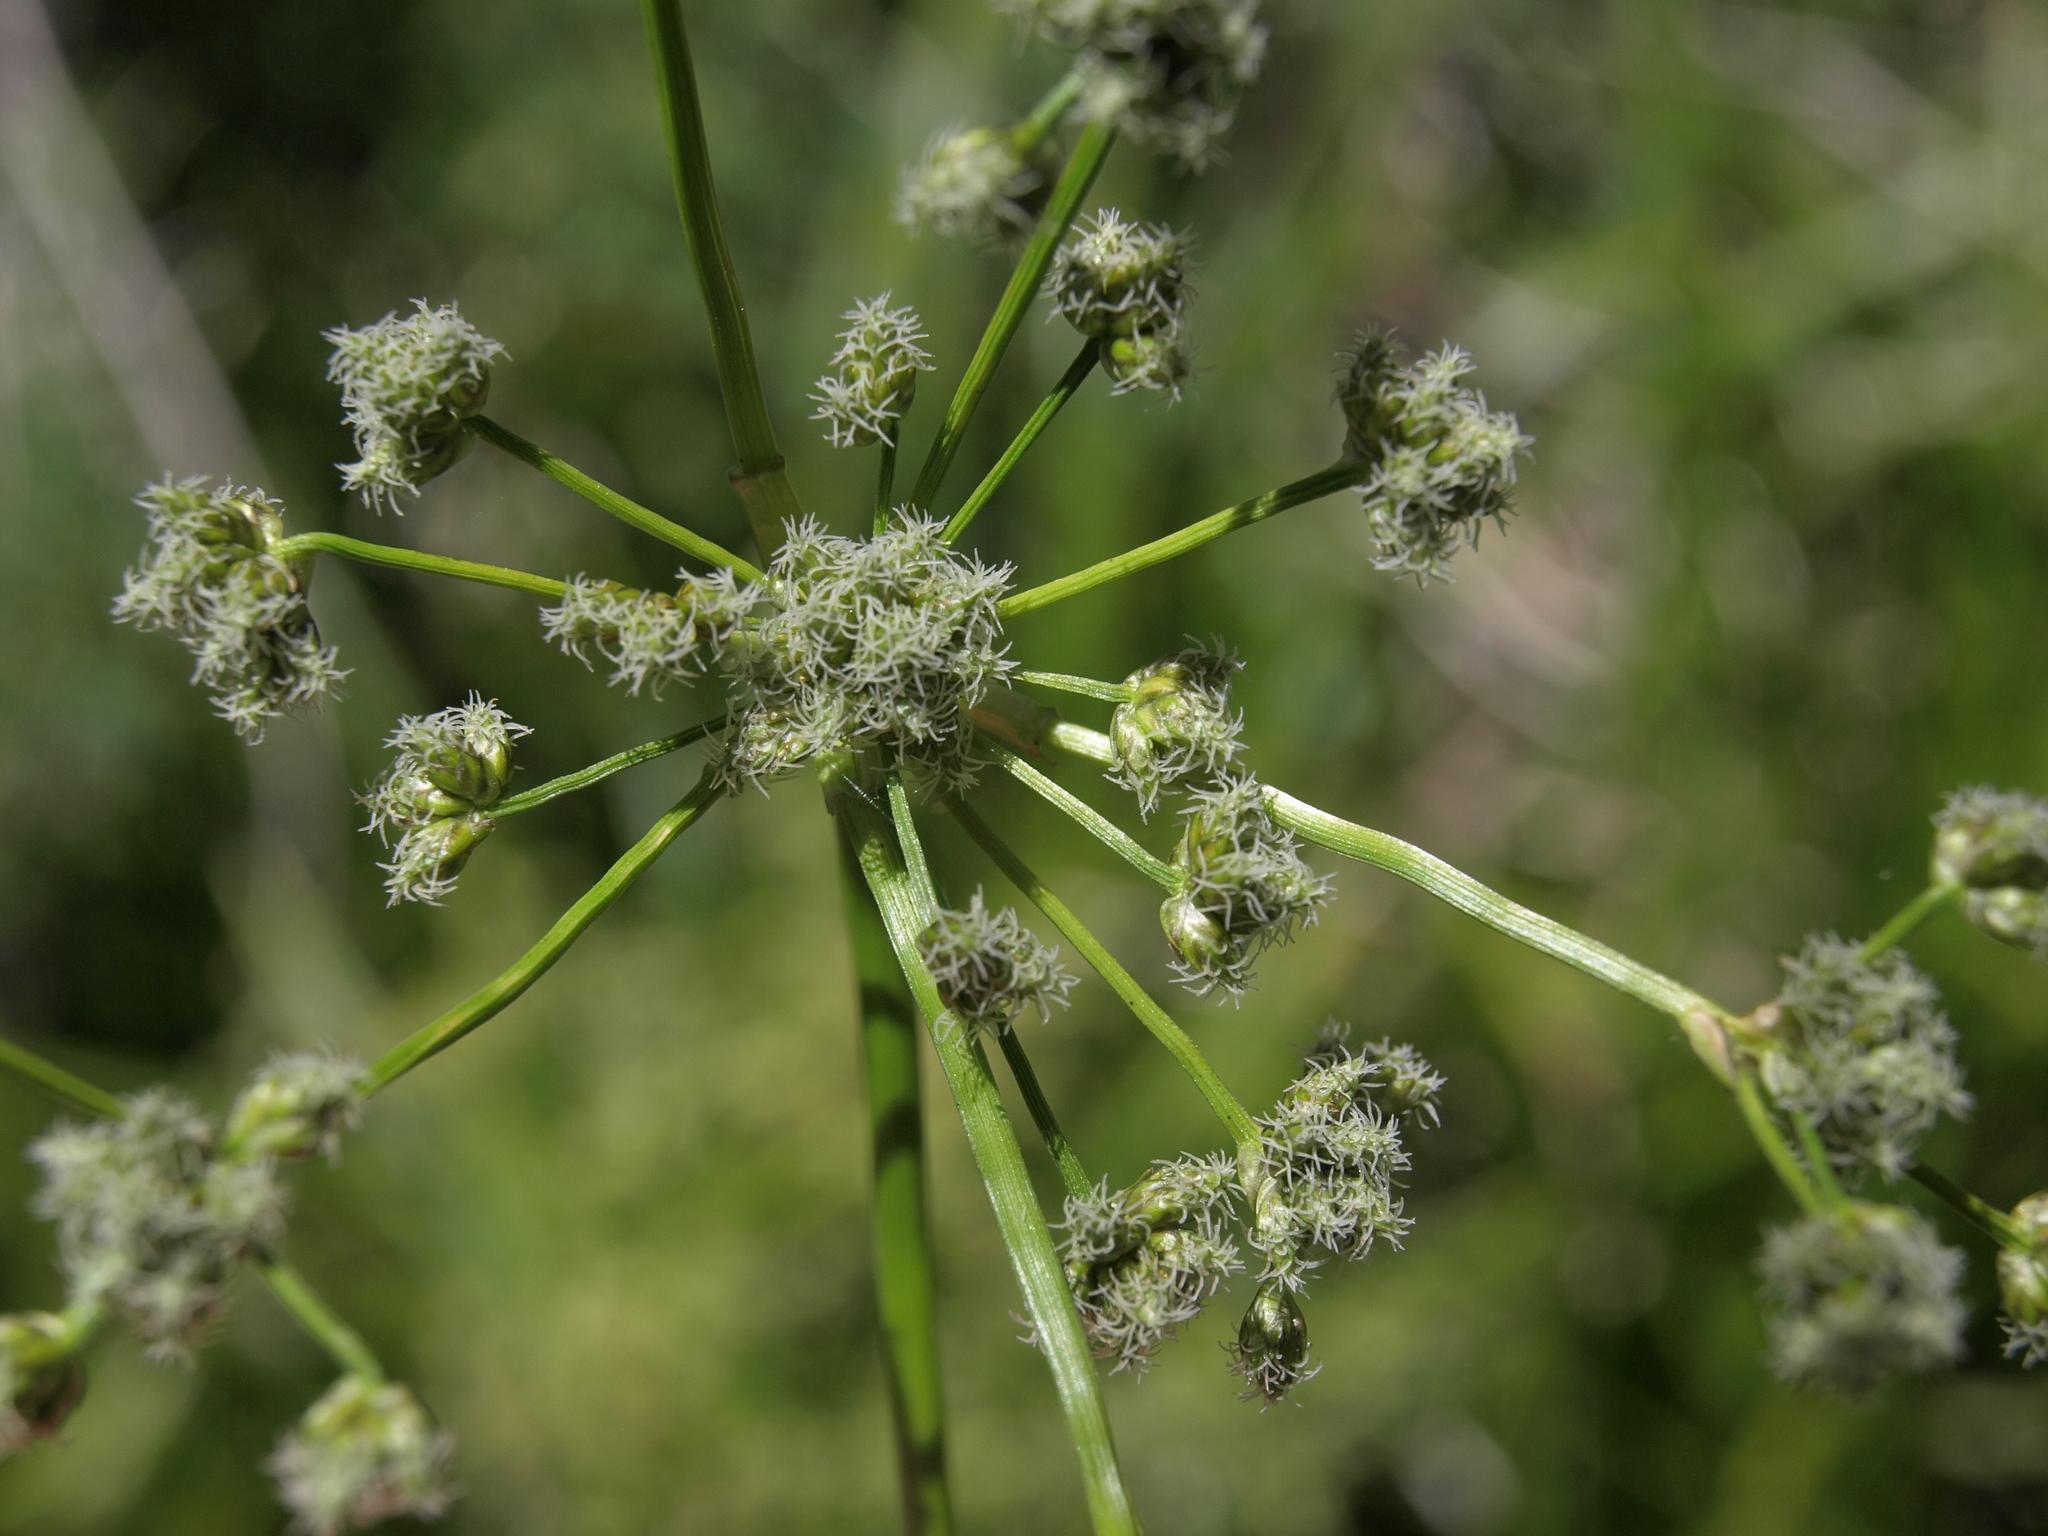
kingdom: Plantae
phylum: Tracheophyta
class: Liliopsida
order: Poales
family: Cyperaceae
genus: Scirpus
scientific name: Scirpus microcarpus
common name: Panicled bulrush
